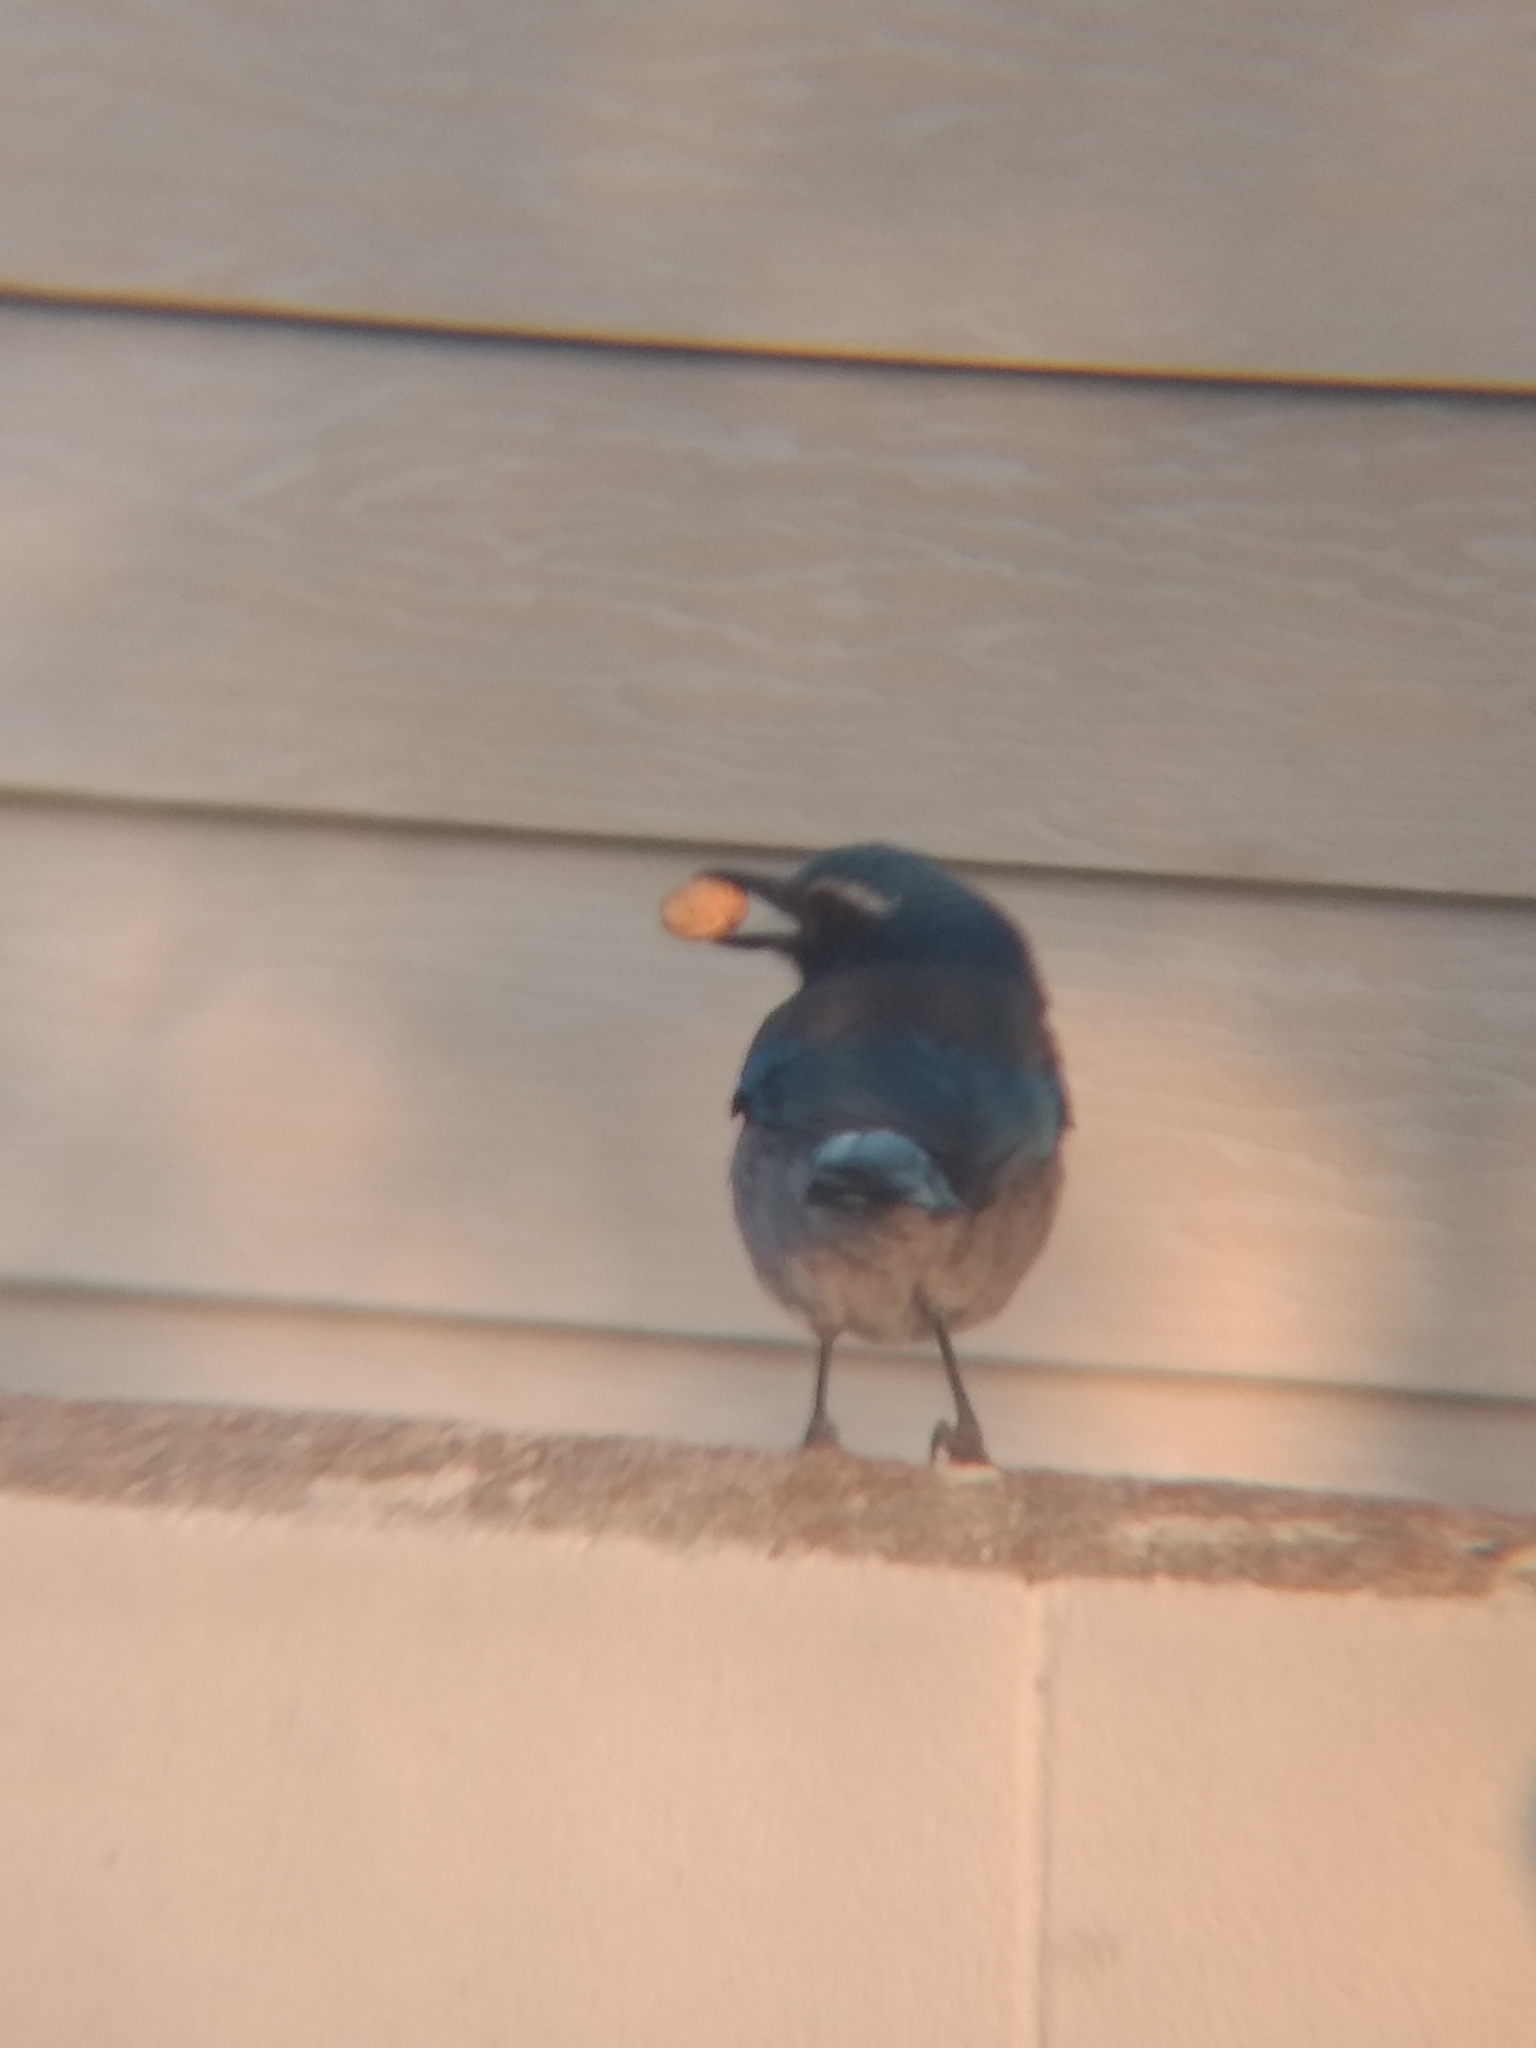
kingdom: Animalia
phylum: Chordata
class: Aves
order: Passeriformes
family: Corvidae
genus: Aphelocoma
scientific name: Aphelocoma californica
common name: California scrub-jay
